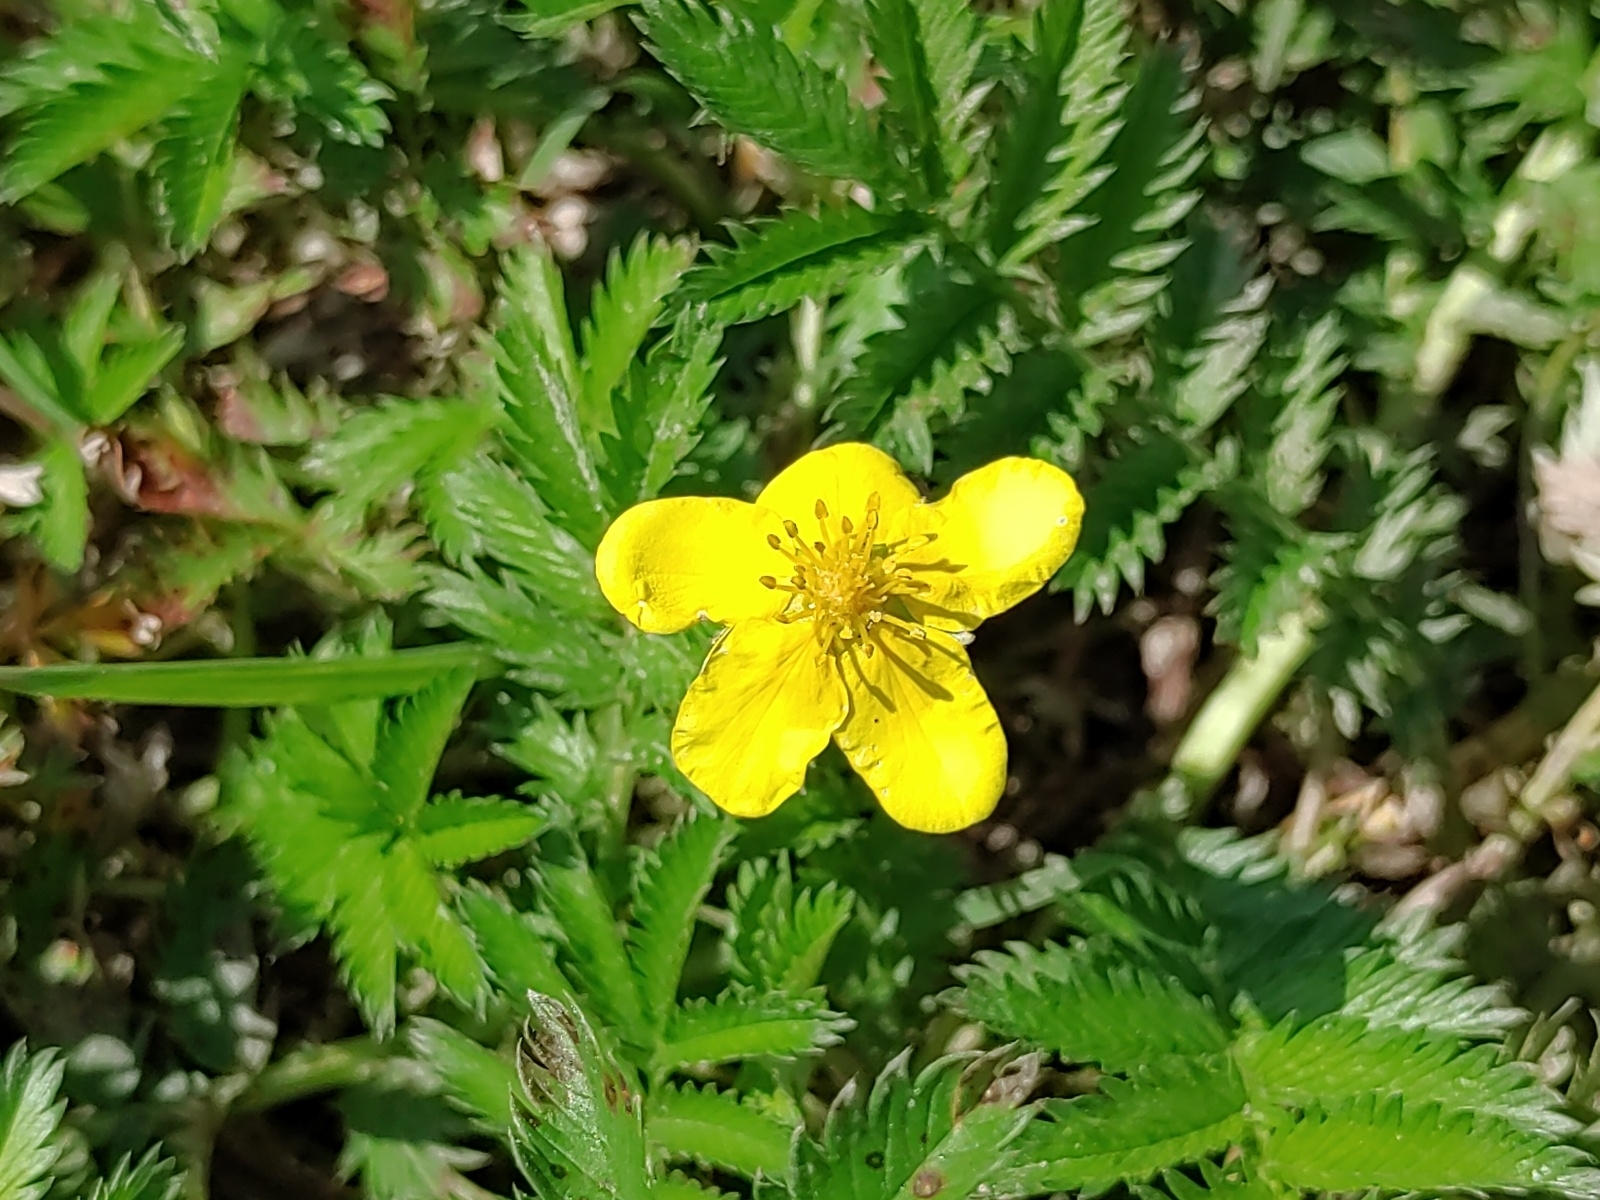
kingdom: Plantae
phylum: Tracheophyta
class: Magnoliopsida
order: Rosales
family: Rosaceae
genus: Argentina
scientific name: Argentina anserina
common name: Common silverweed
